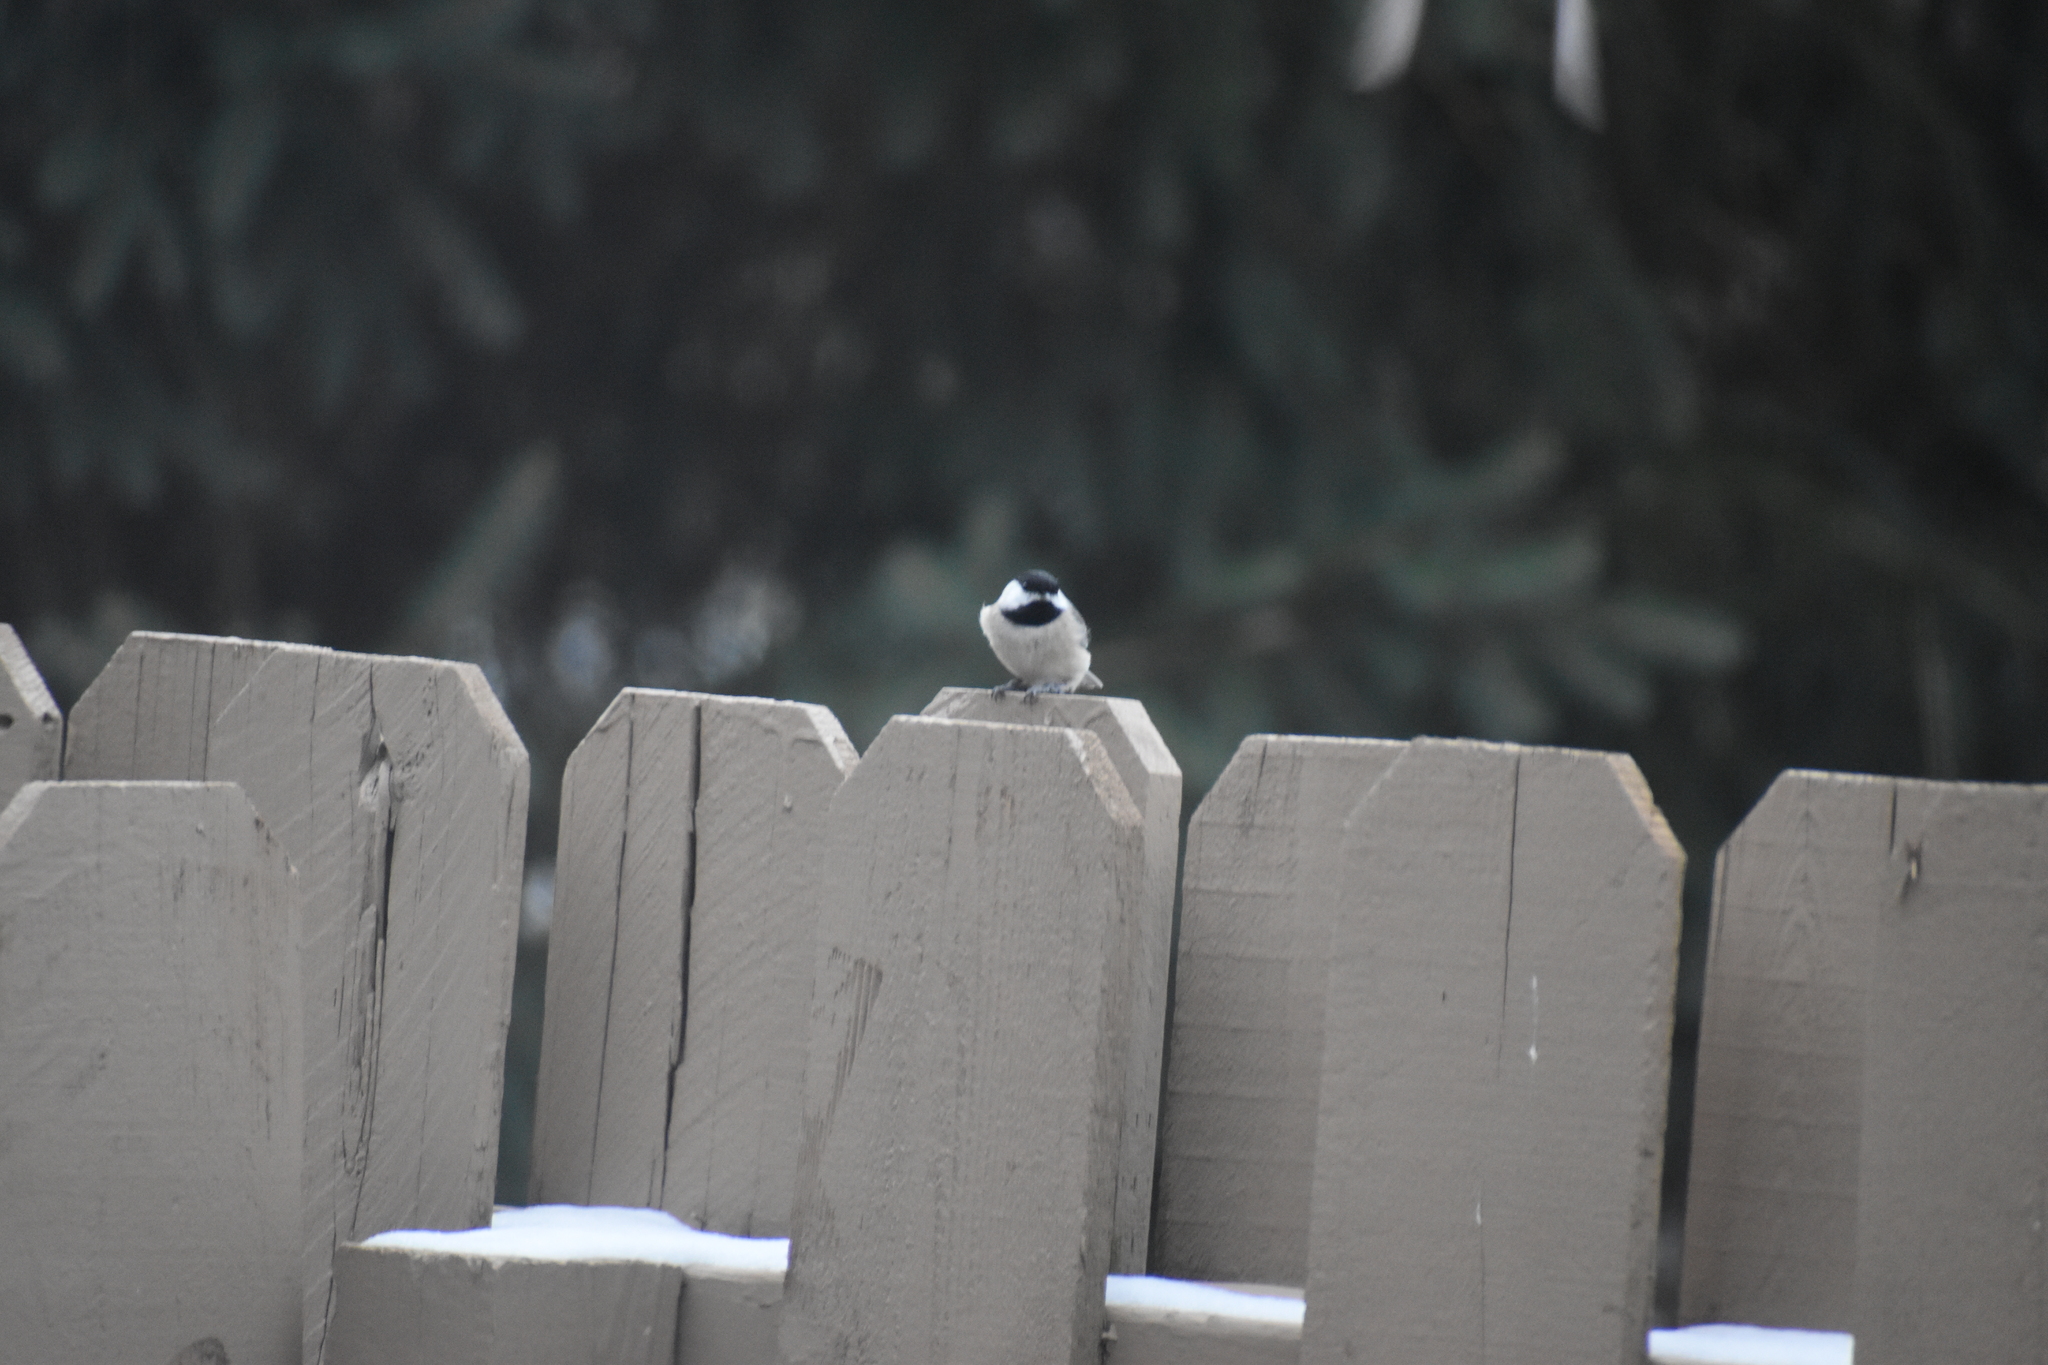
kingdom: Animalia
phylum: Chordata
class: Aves
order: Passeriformes
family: Paridae
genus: Poecile
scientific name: Poecile carolinensis
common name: Carolina chickadee
